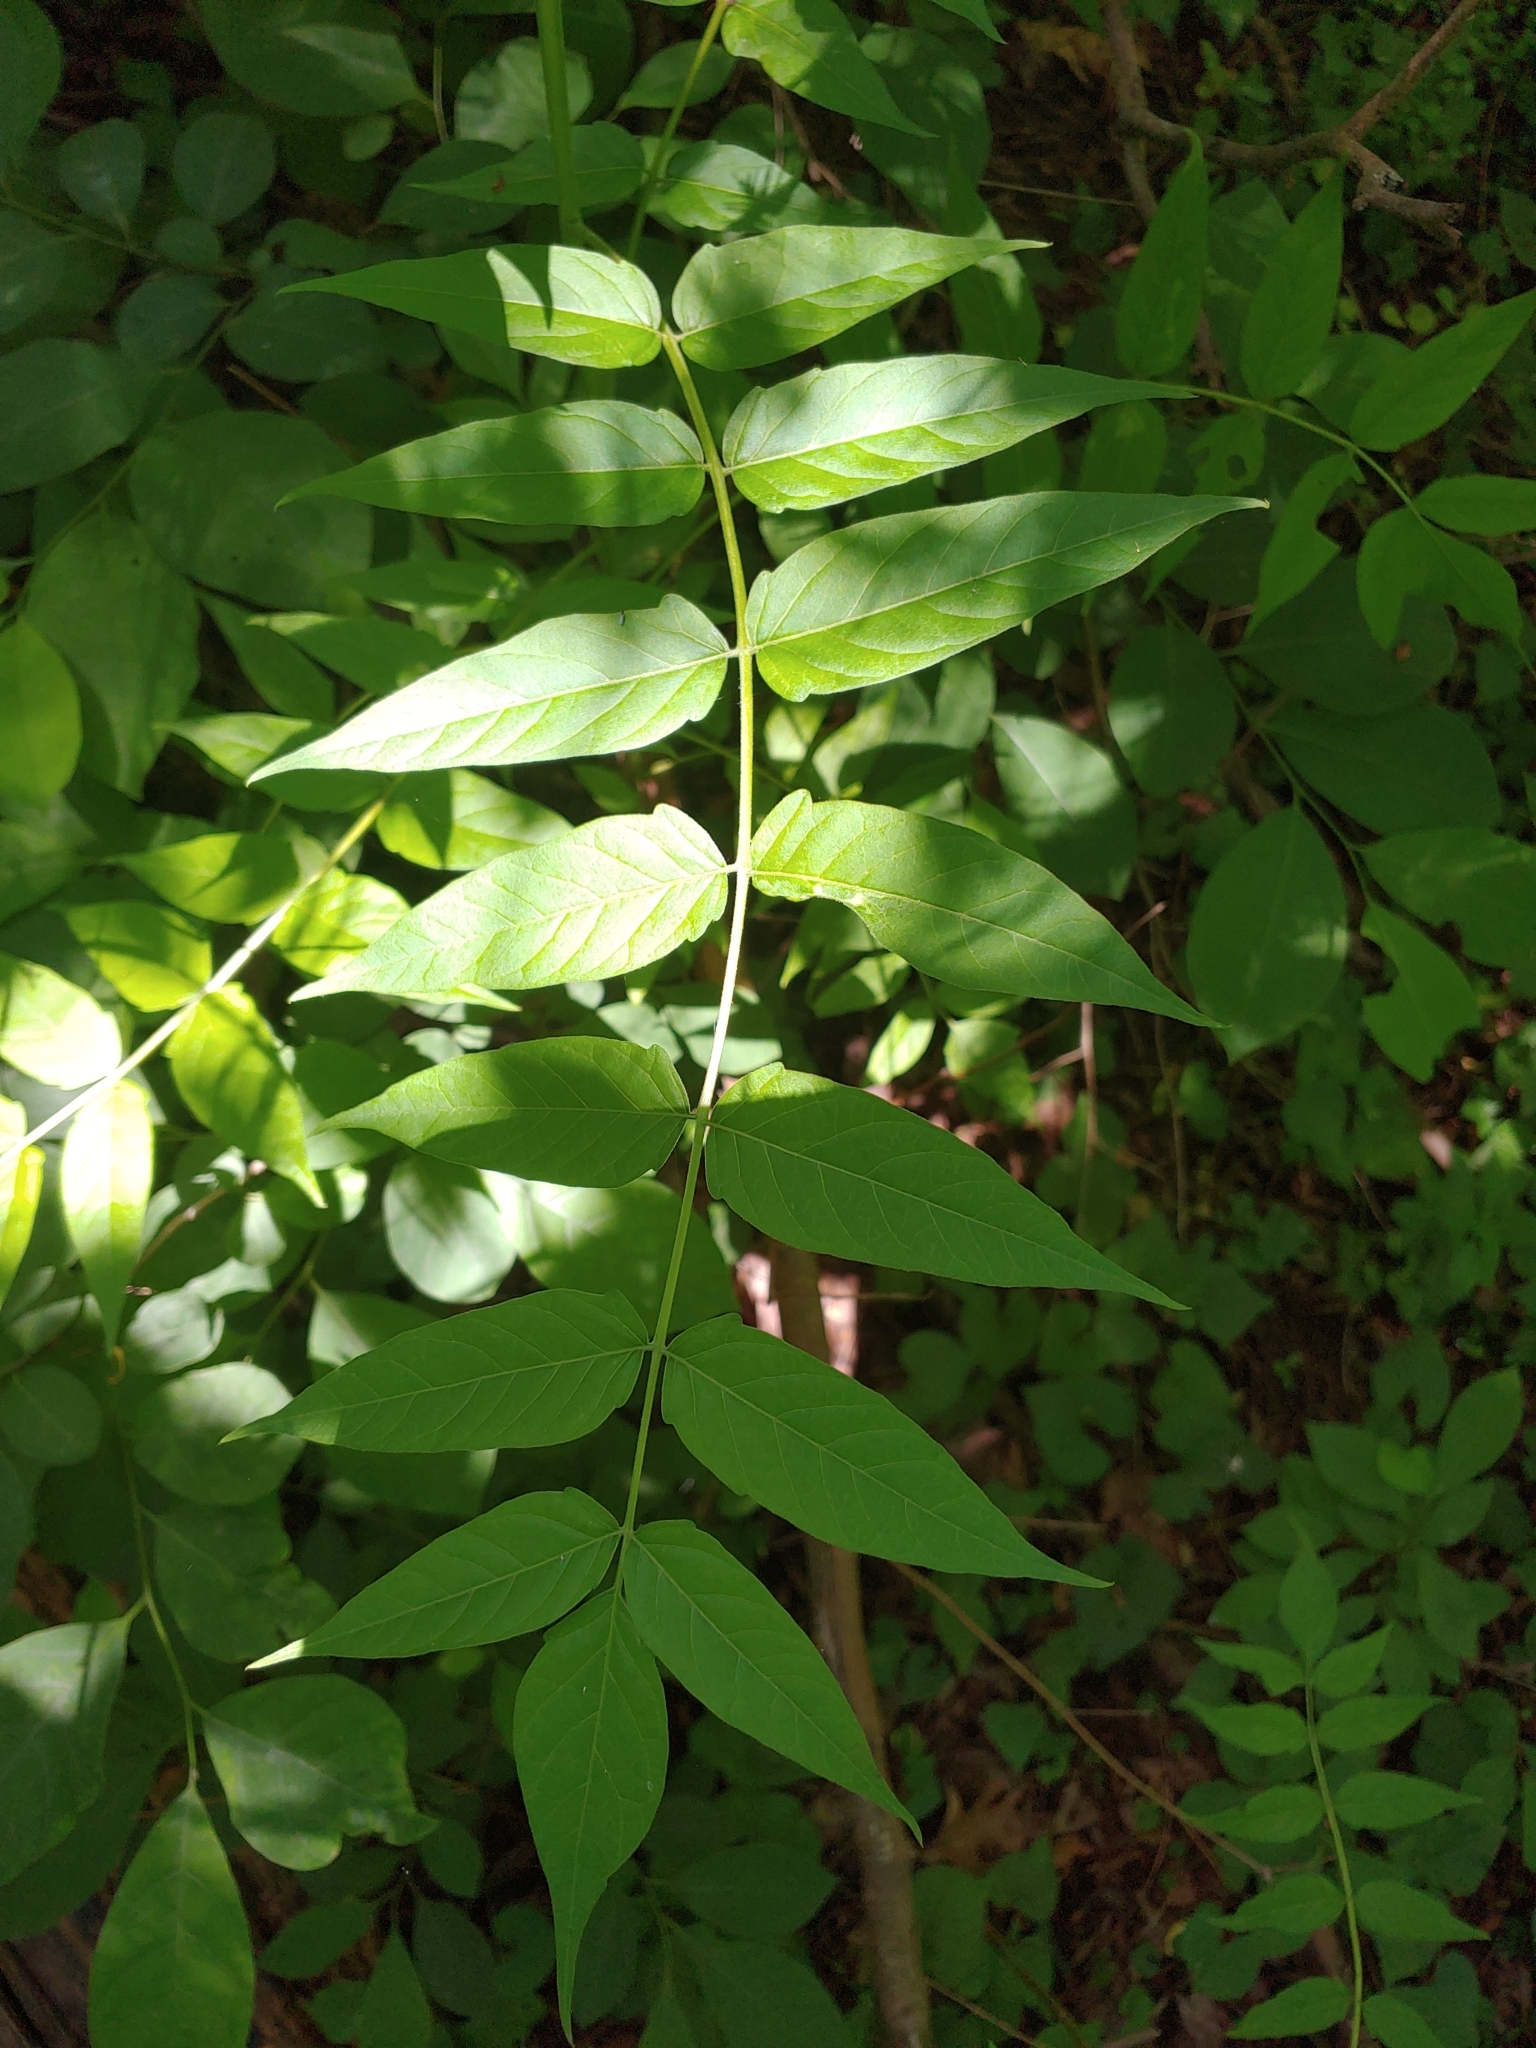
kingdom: Plantae
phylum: Tracheophyta
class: Magnoliopsida
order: Sapindales
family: Simaroubaceae
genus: Ailanthus
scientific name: Ailanthus altissima
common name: Tree-of-heaven
